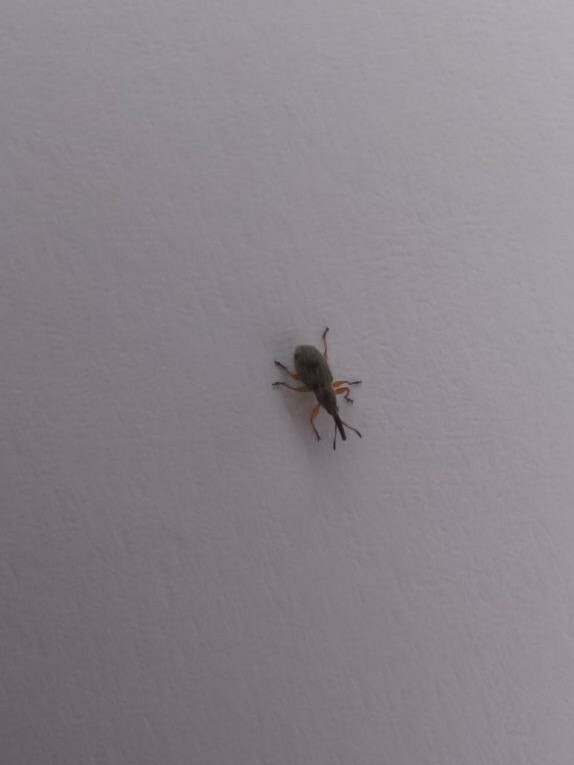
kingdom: Animalia
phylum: Arthropoda
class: Insecta
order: Coleoptera
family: Brentidae
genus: Rhopalapion
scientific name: Rhopalapion longirostre
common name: Hollyhock weevil
